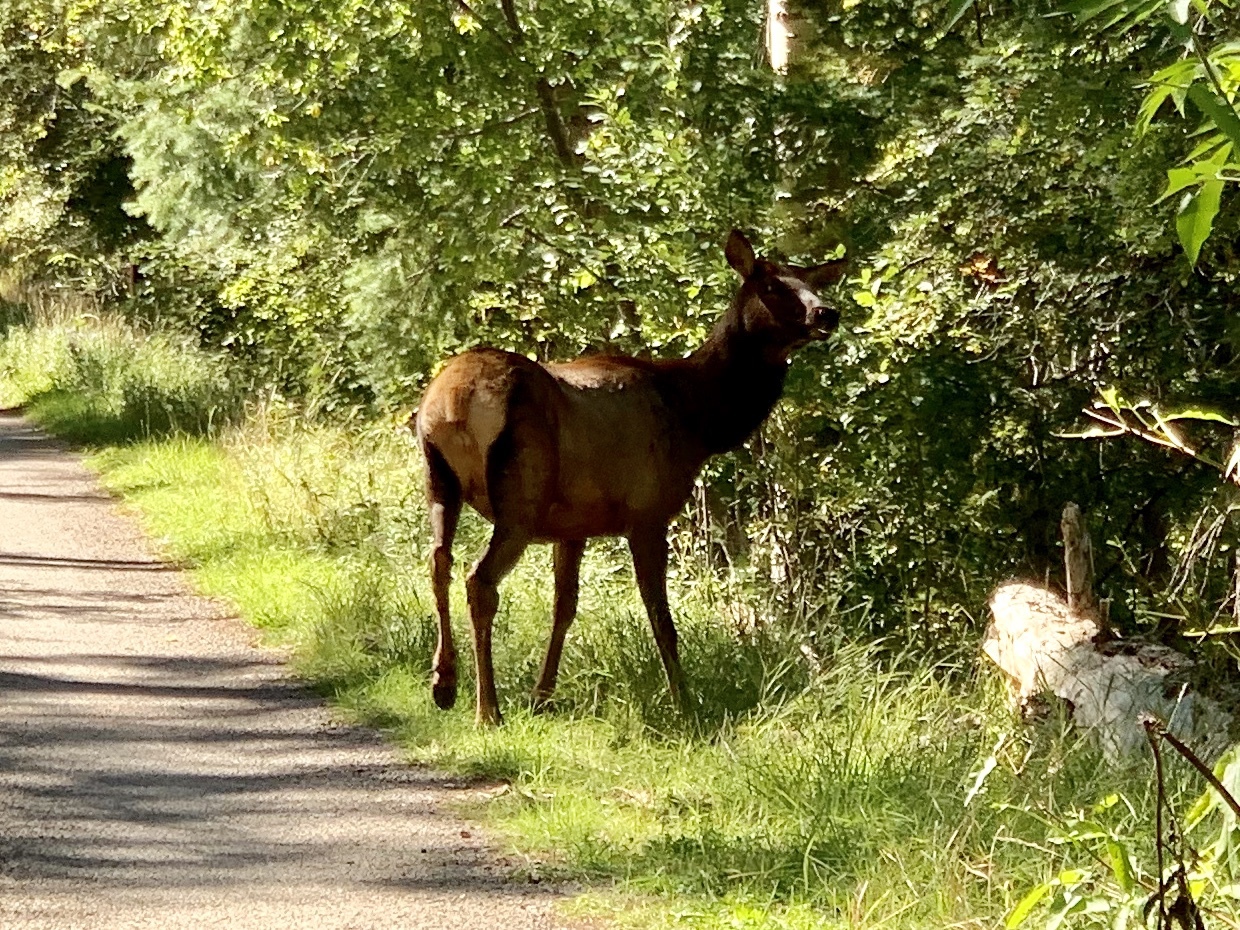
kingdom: Animalia
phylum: Chordata
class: Mammalia
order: Artiodactyla
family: Cervidae
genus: Cervus
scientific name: Cervus elaphus
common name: Red deer
